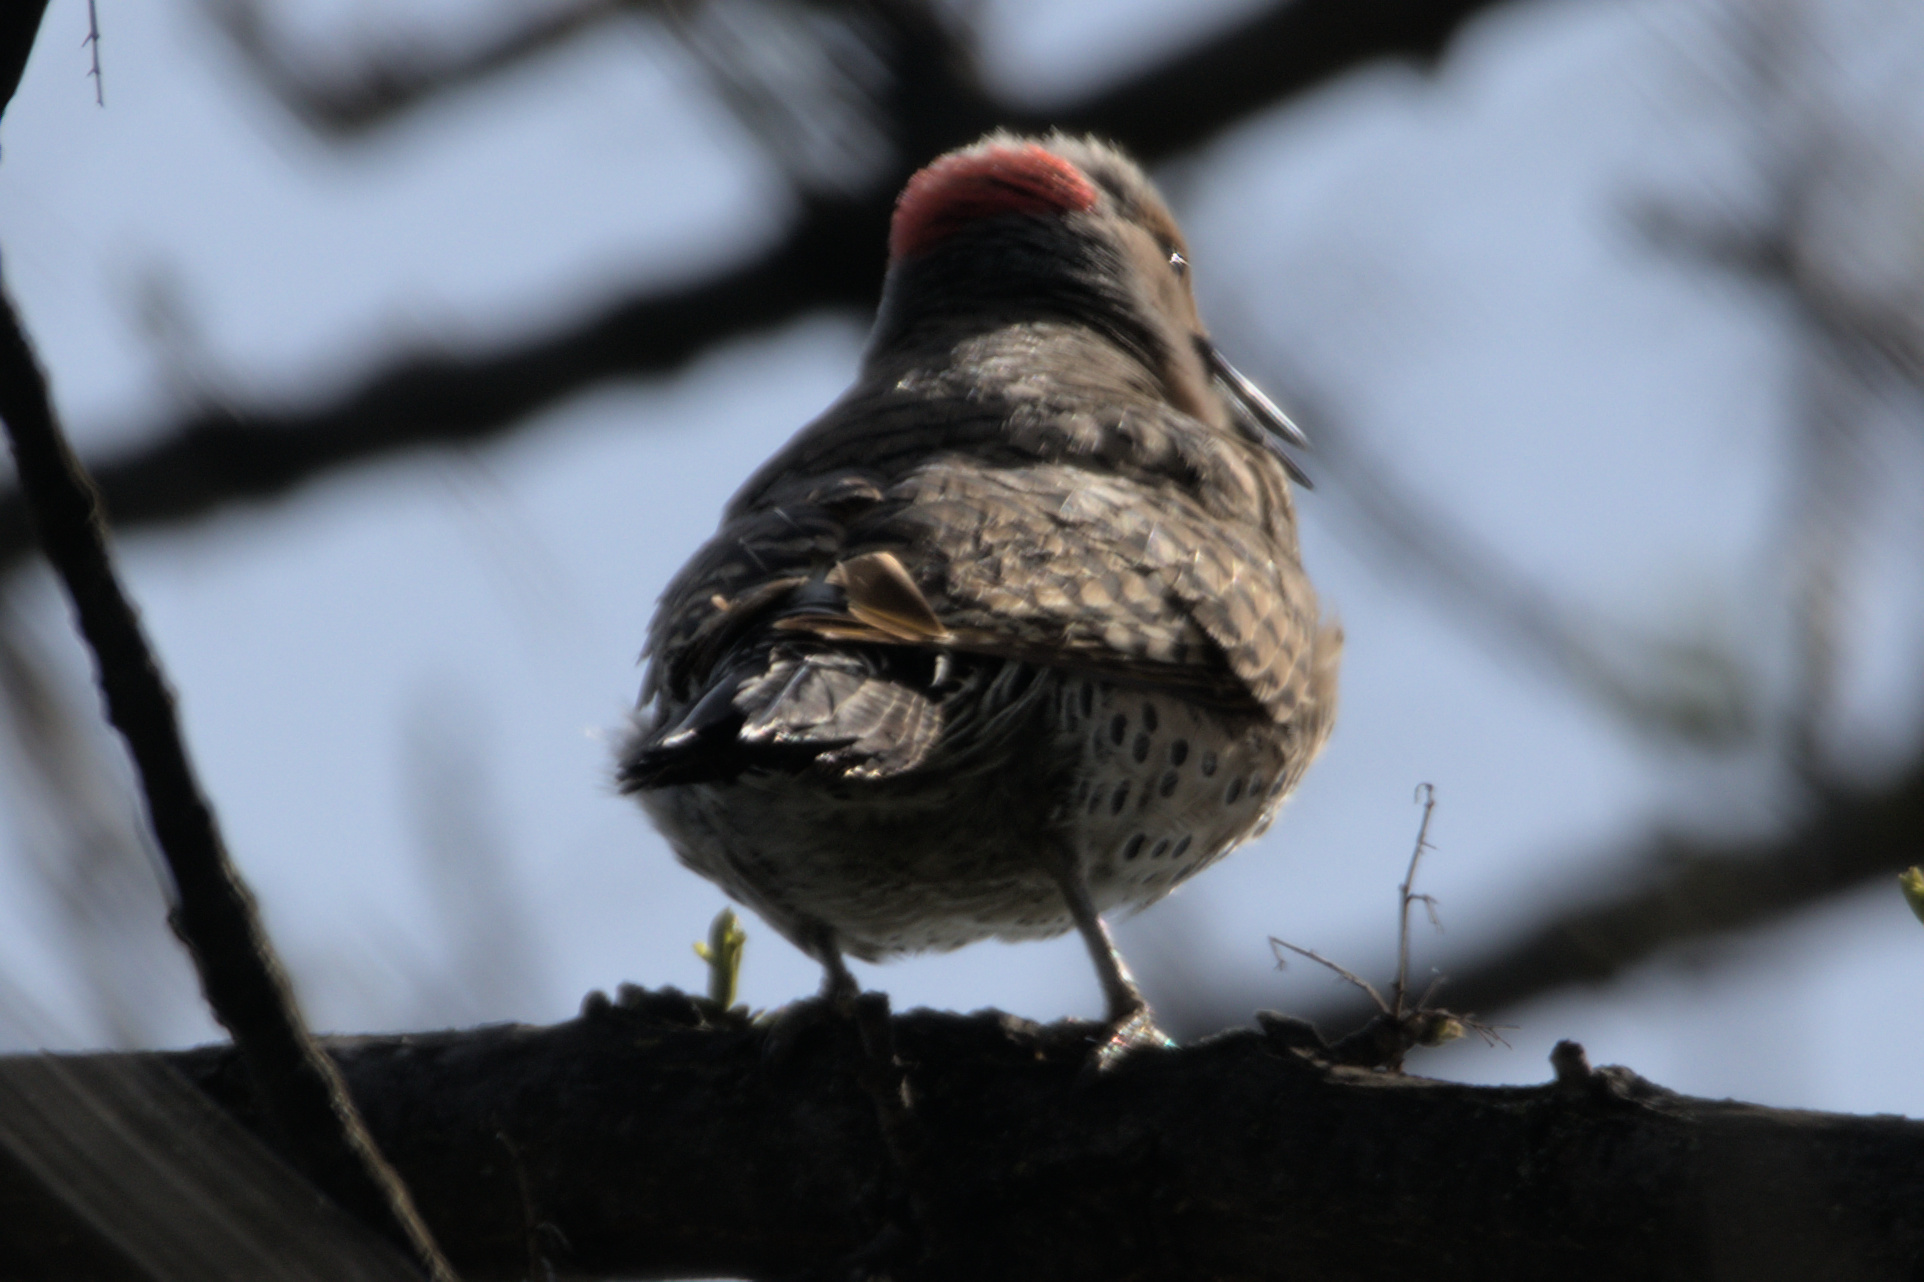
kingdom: Animalia
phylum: Chordata
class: Aves
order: Piciformes
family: Picidae
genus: Colaptes
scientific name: Colaptes auratus
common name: Northern flicker
